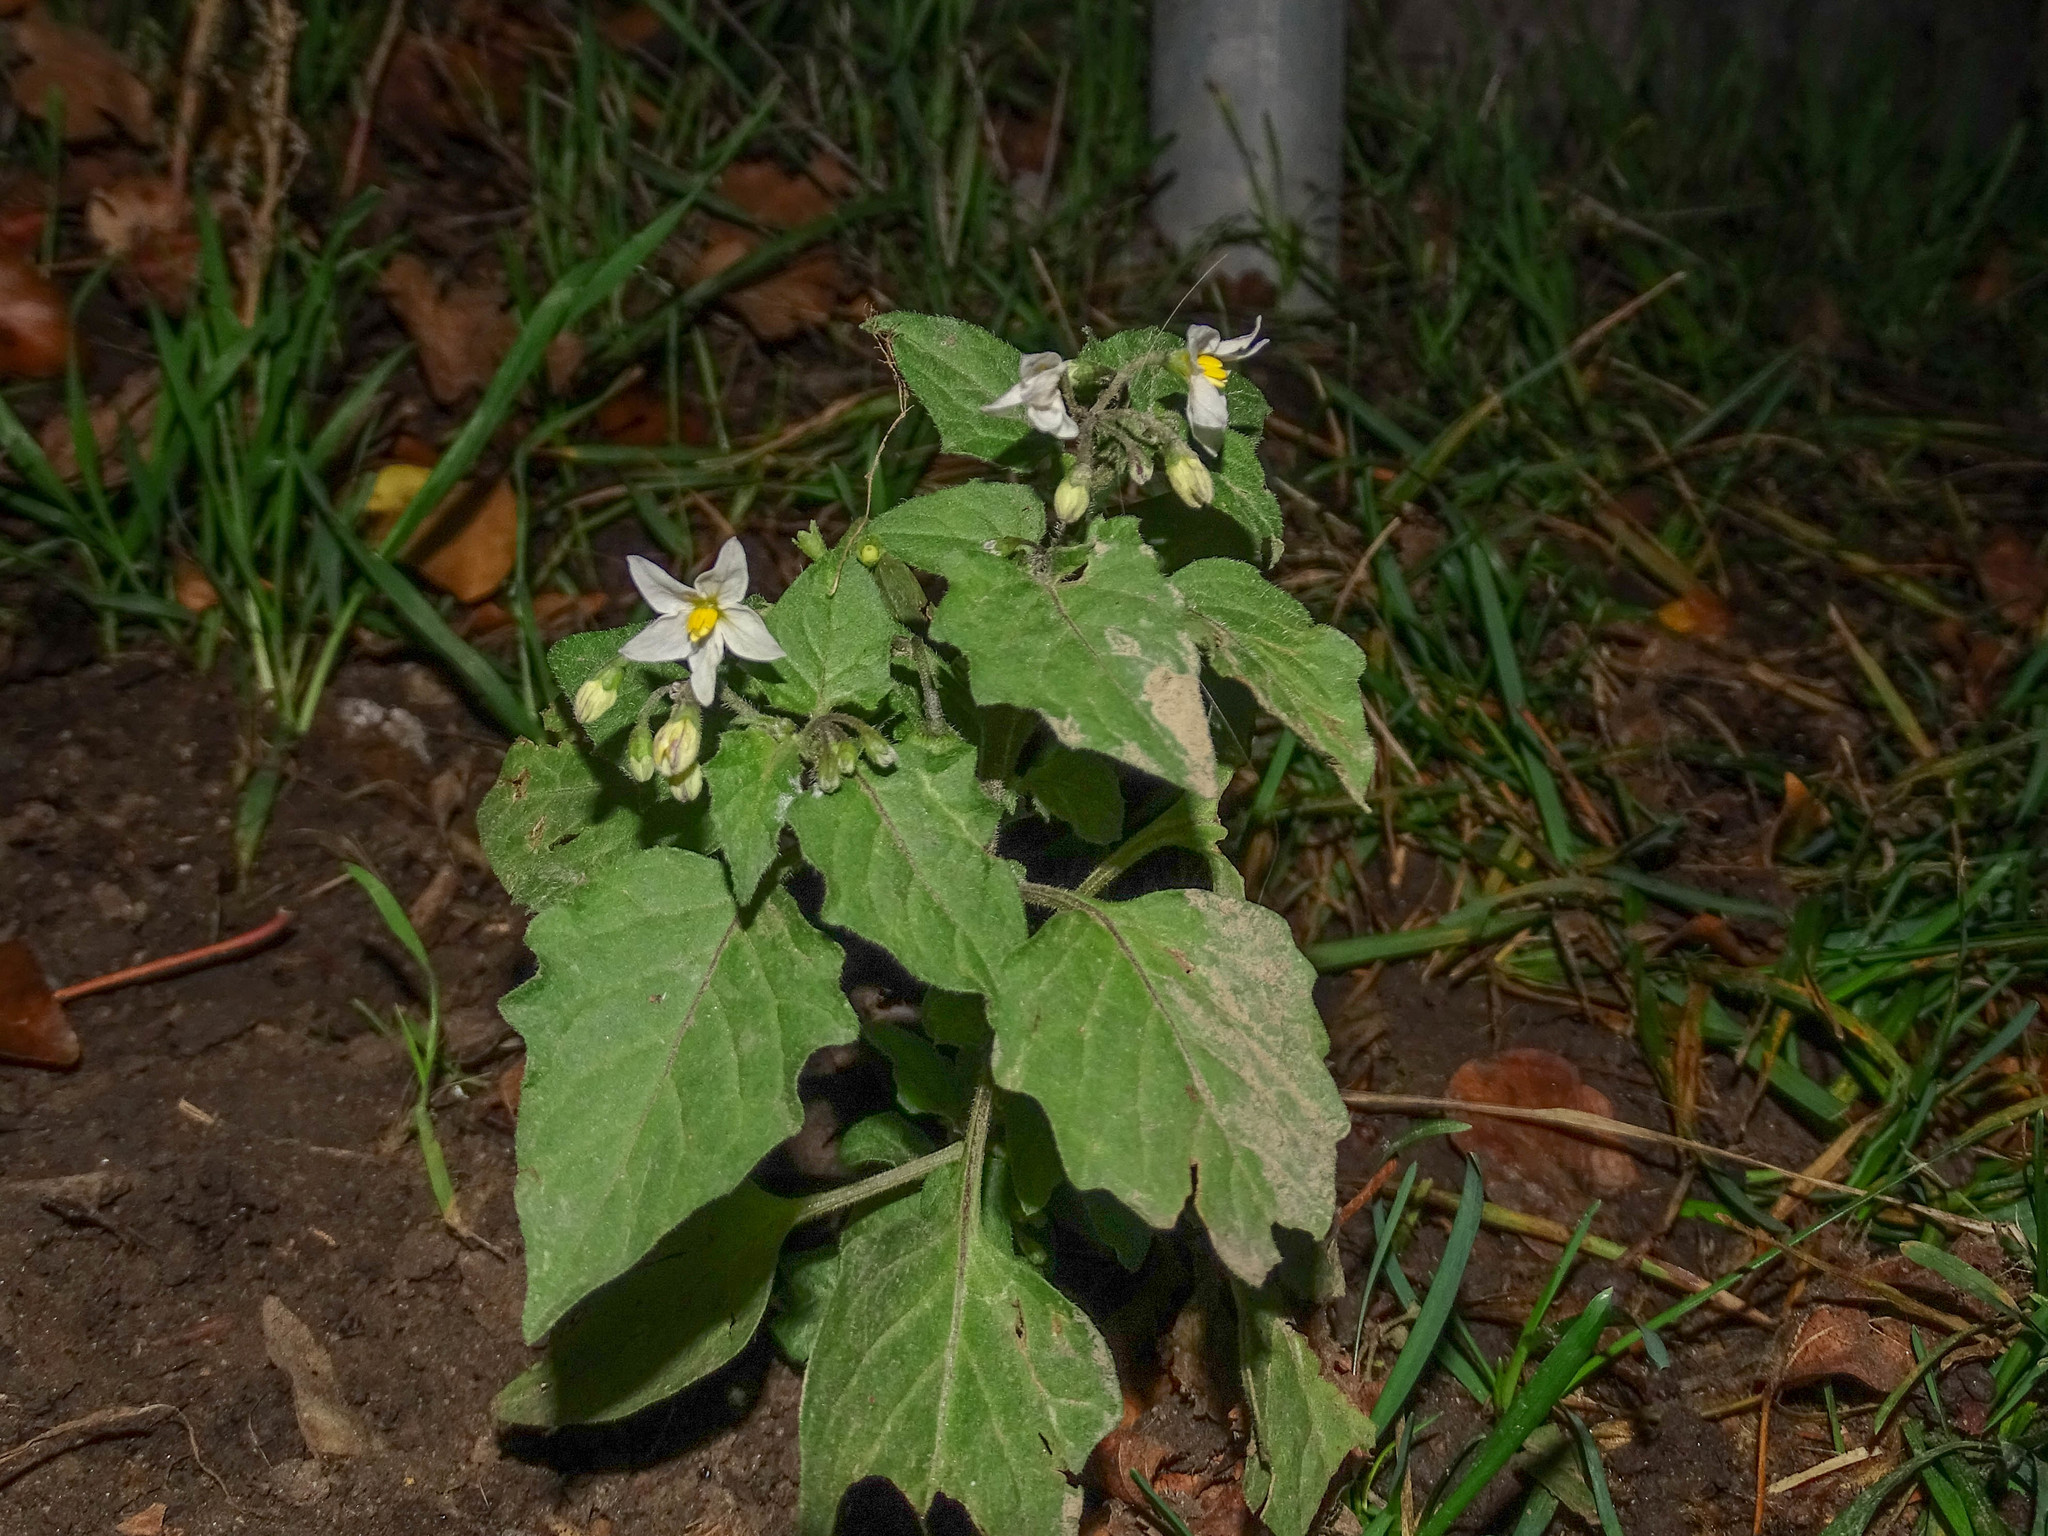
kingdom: Plantae
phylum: Tracheophyta
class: Magnoliopsida
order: Solanales
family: Solanaceae
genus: Solanum
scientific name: Solanum nigrum
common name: Black nightshade
